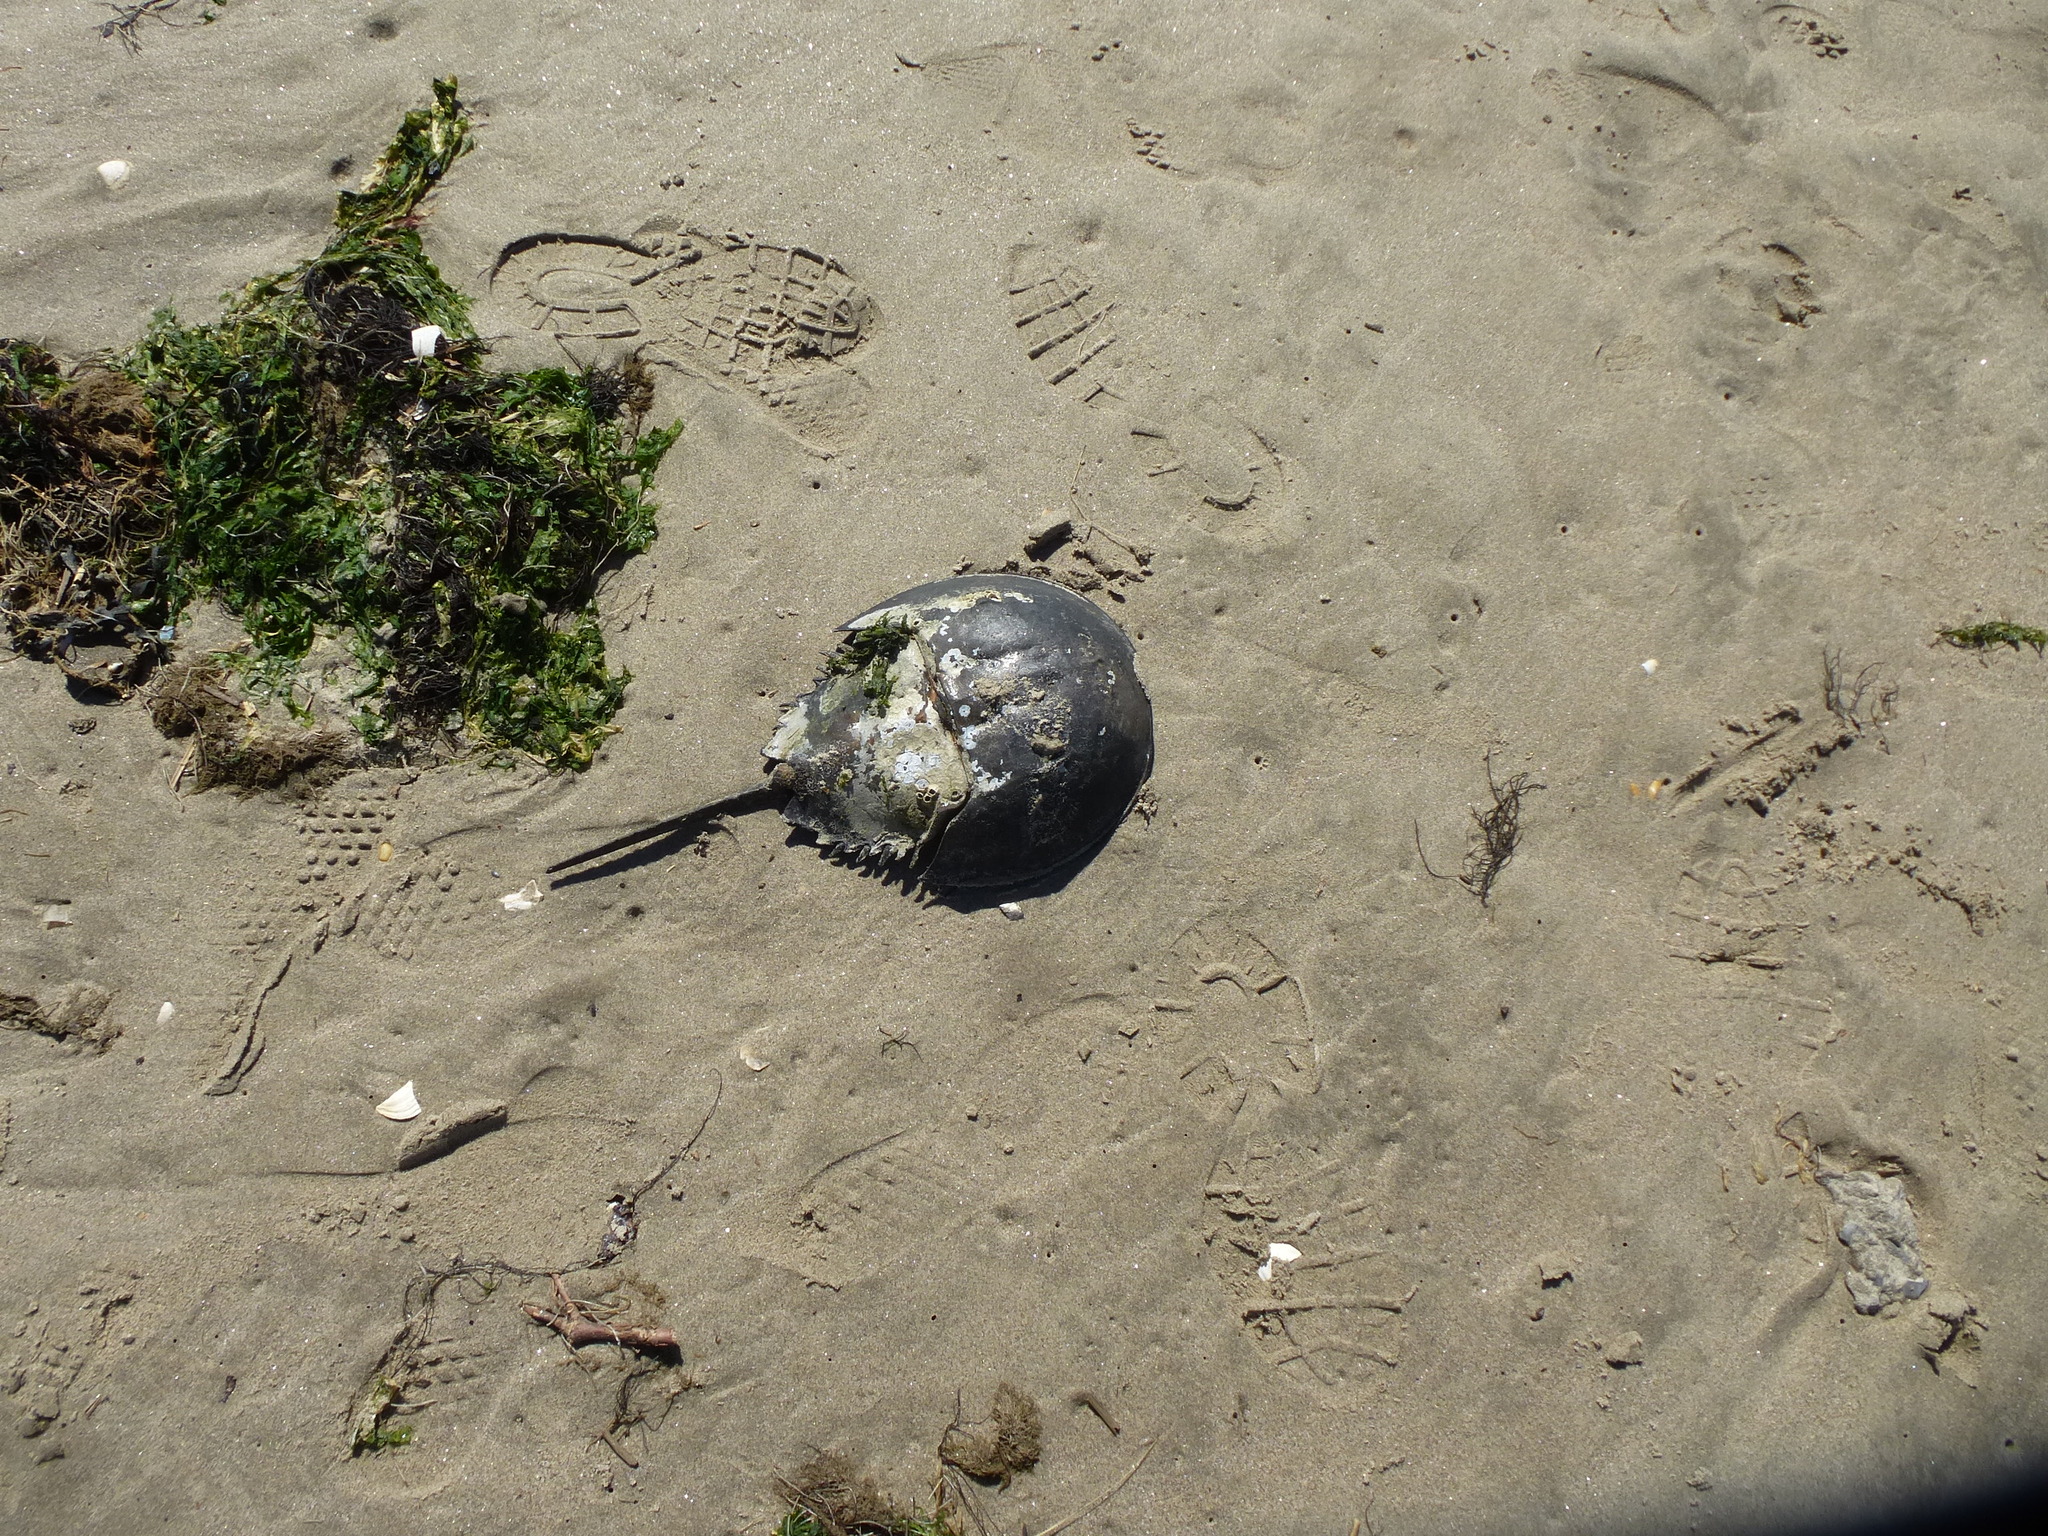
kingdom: Animalia
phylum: Arthropoda
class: Merostomata
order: Xiphosurida
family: Limulidae
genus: Limulus
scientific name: Limulus polyphemus
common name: Horseshoe crab
